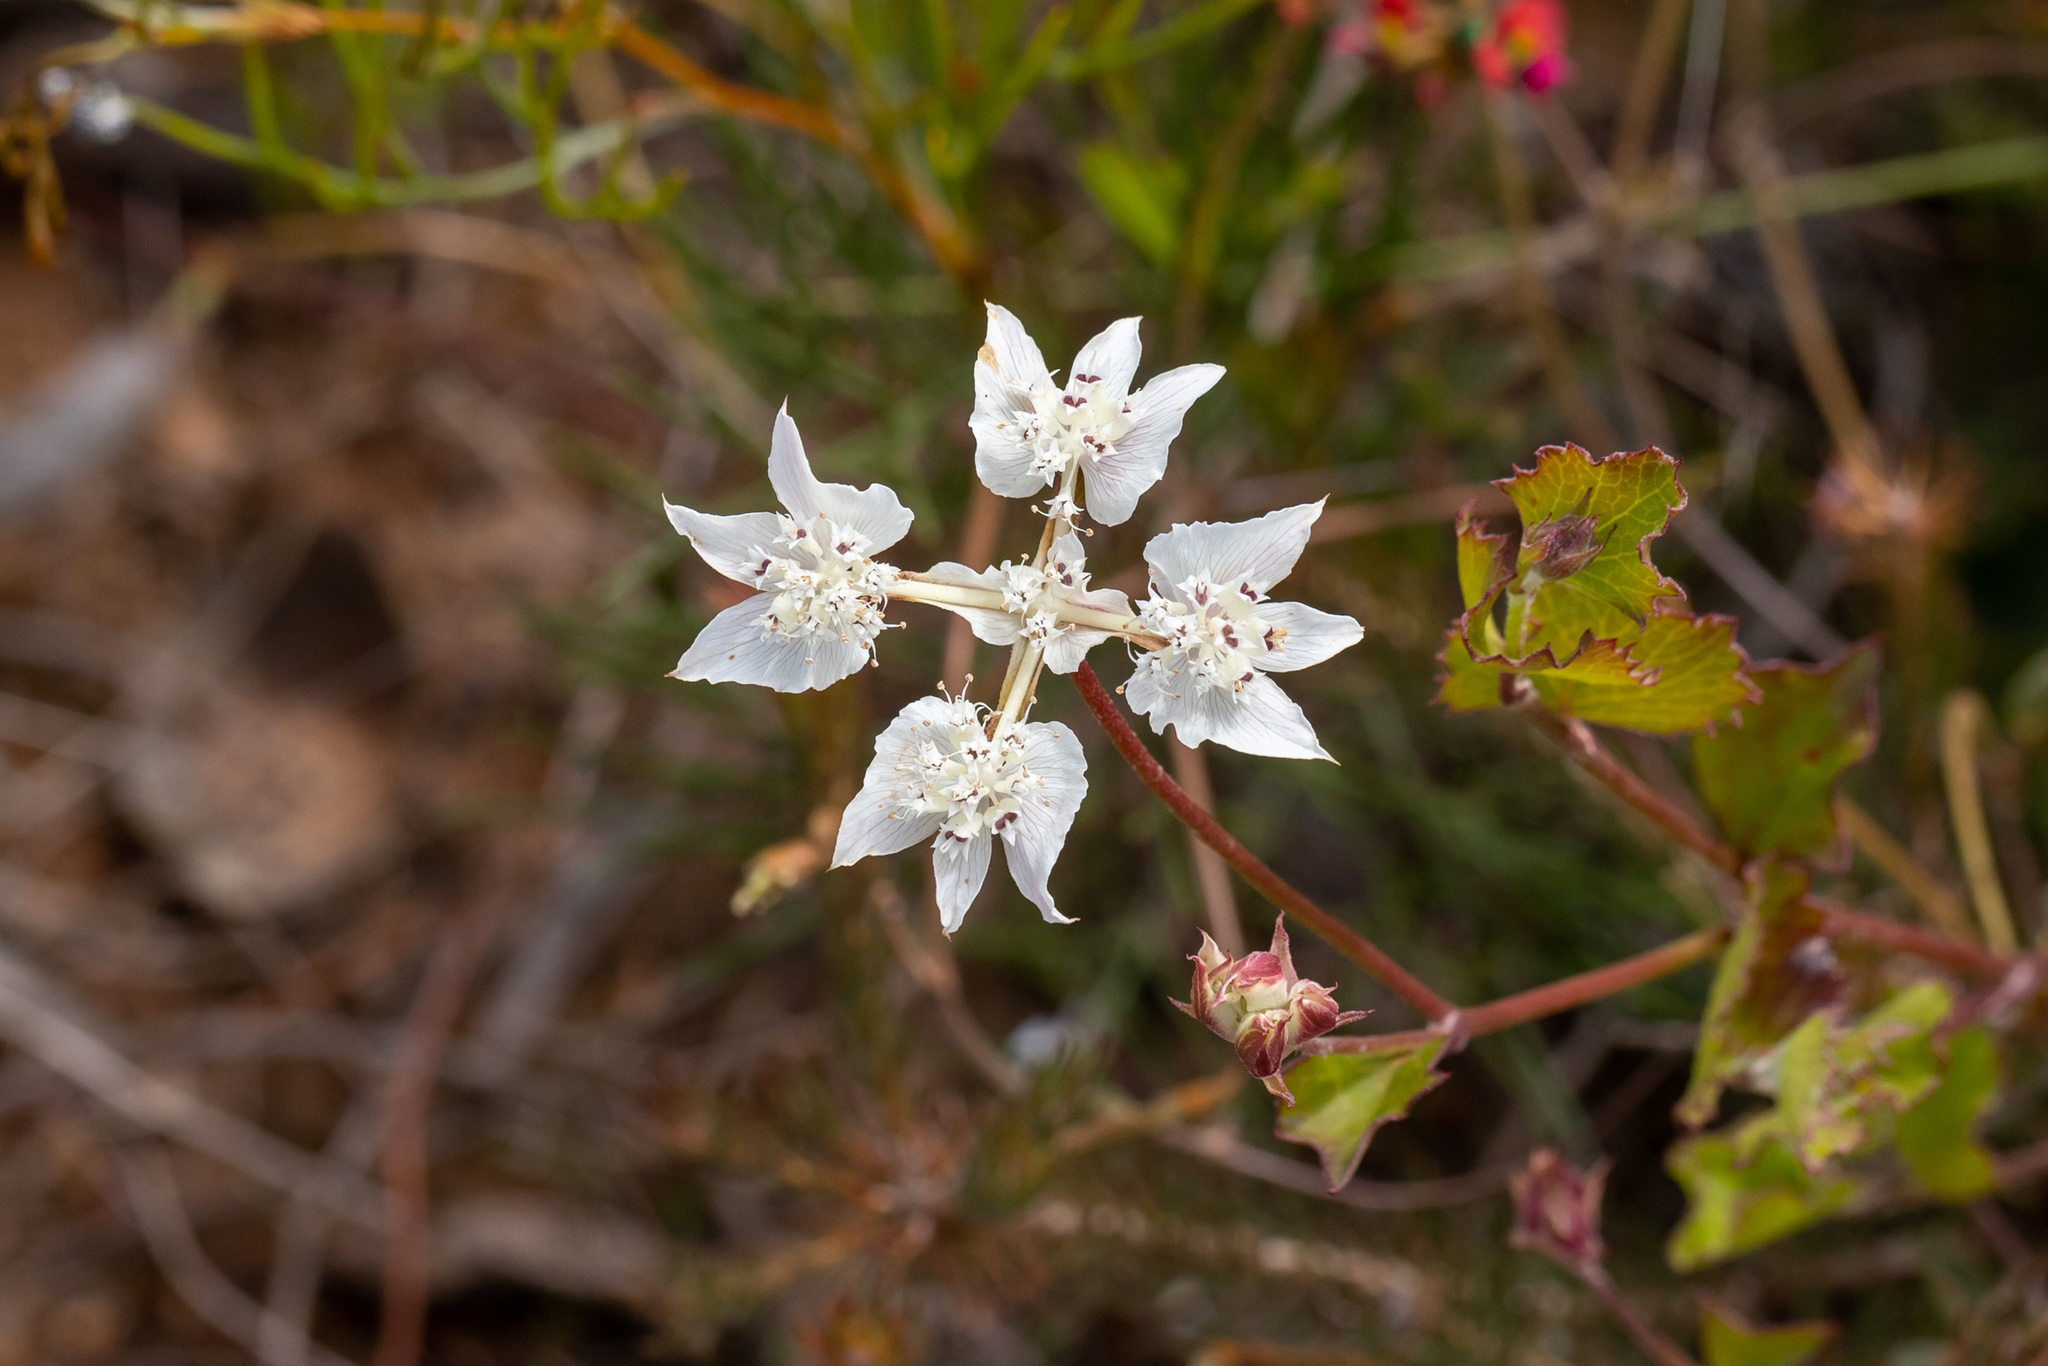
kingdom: Plantae
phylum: Tracheophyta
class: Magnoliopsida
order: Apiales
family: Apiaceae
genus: Xanthosia
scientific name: Xanthosia rotundifolia
